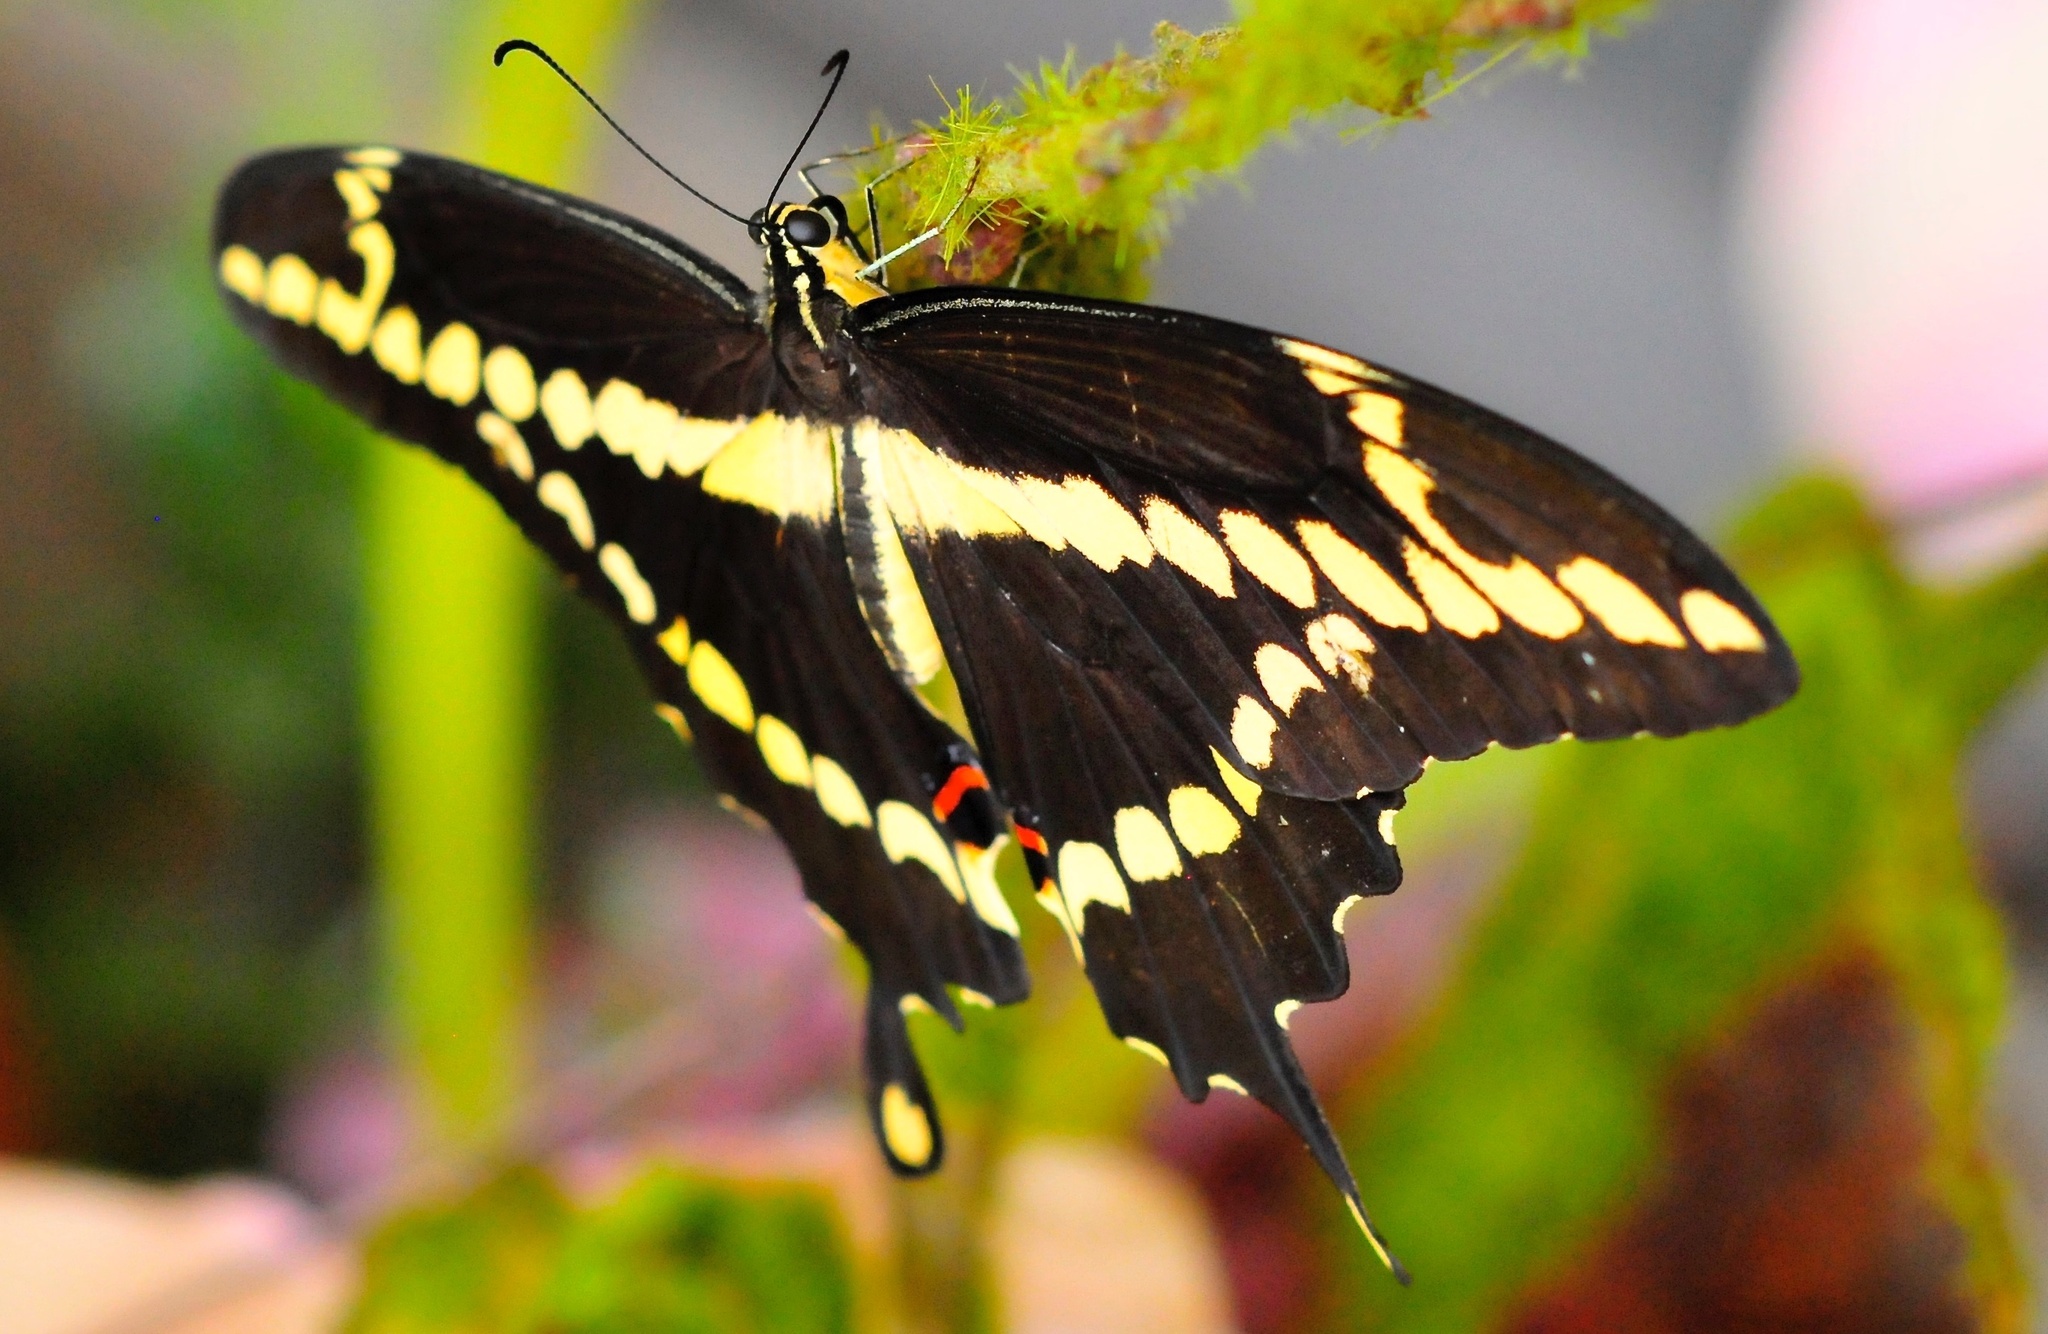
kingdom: Animalia
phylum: Arthropoda
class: Insecta
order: Lepidoptera
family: Papilionidae
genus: Papilio
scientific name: Papilio cresphontes
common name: Giant swallowtail
